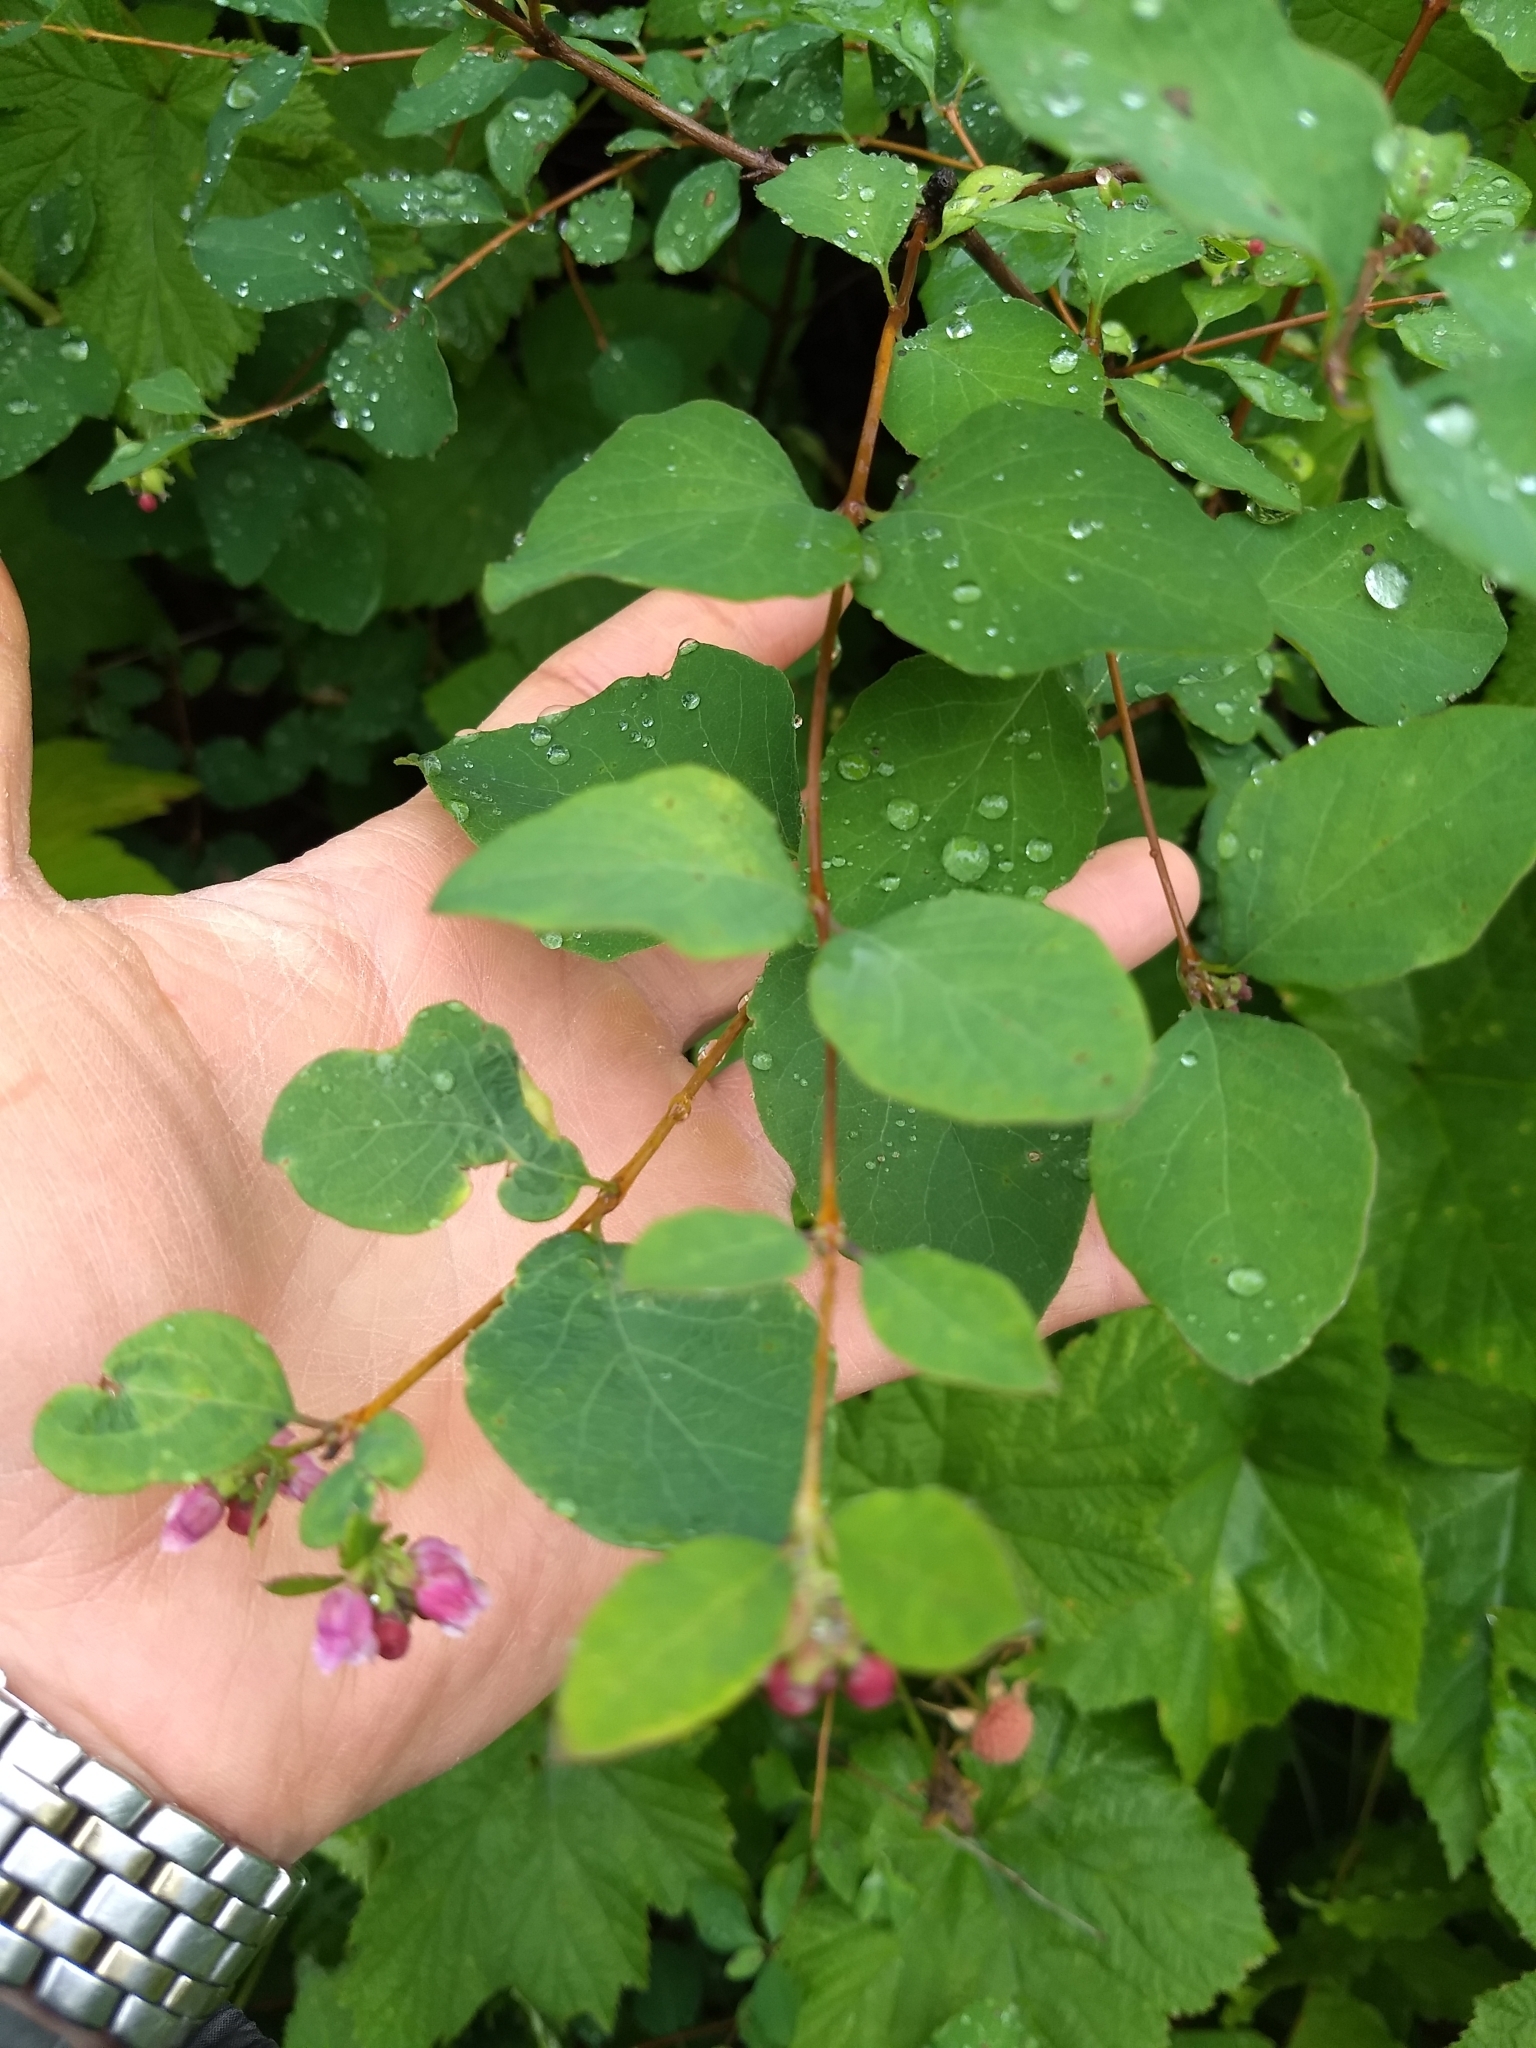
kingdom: Plantae
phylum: Tracheophyta
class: Magnoliopsida
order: Dipsacales
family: Caprifoliaceae
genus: Symphoricarpos
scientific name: Symphoricarpos albus
